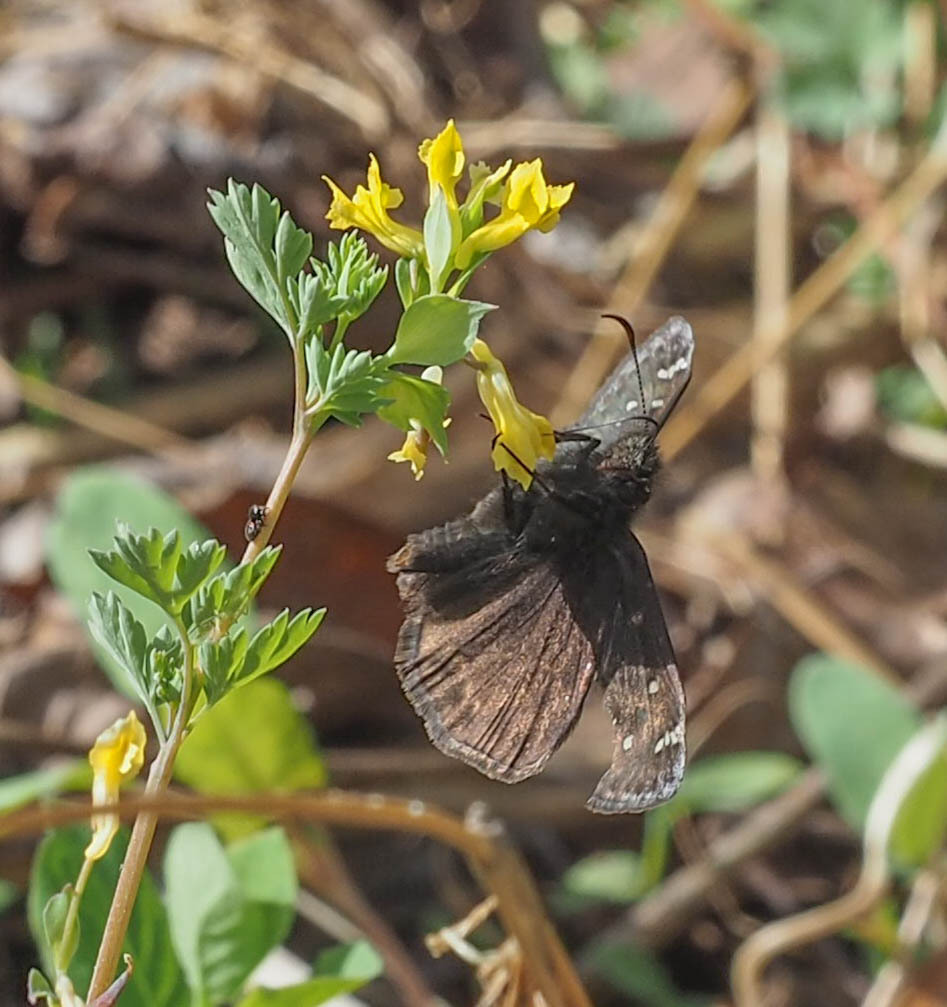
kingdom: Animalia
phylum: Arthropoda
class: Insecta
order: Lepidoptera
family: Hesperiidae
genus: Erynnis
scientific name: Erynnis horatius
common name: Horace's duskywing
